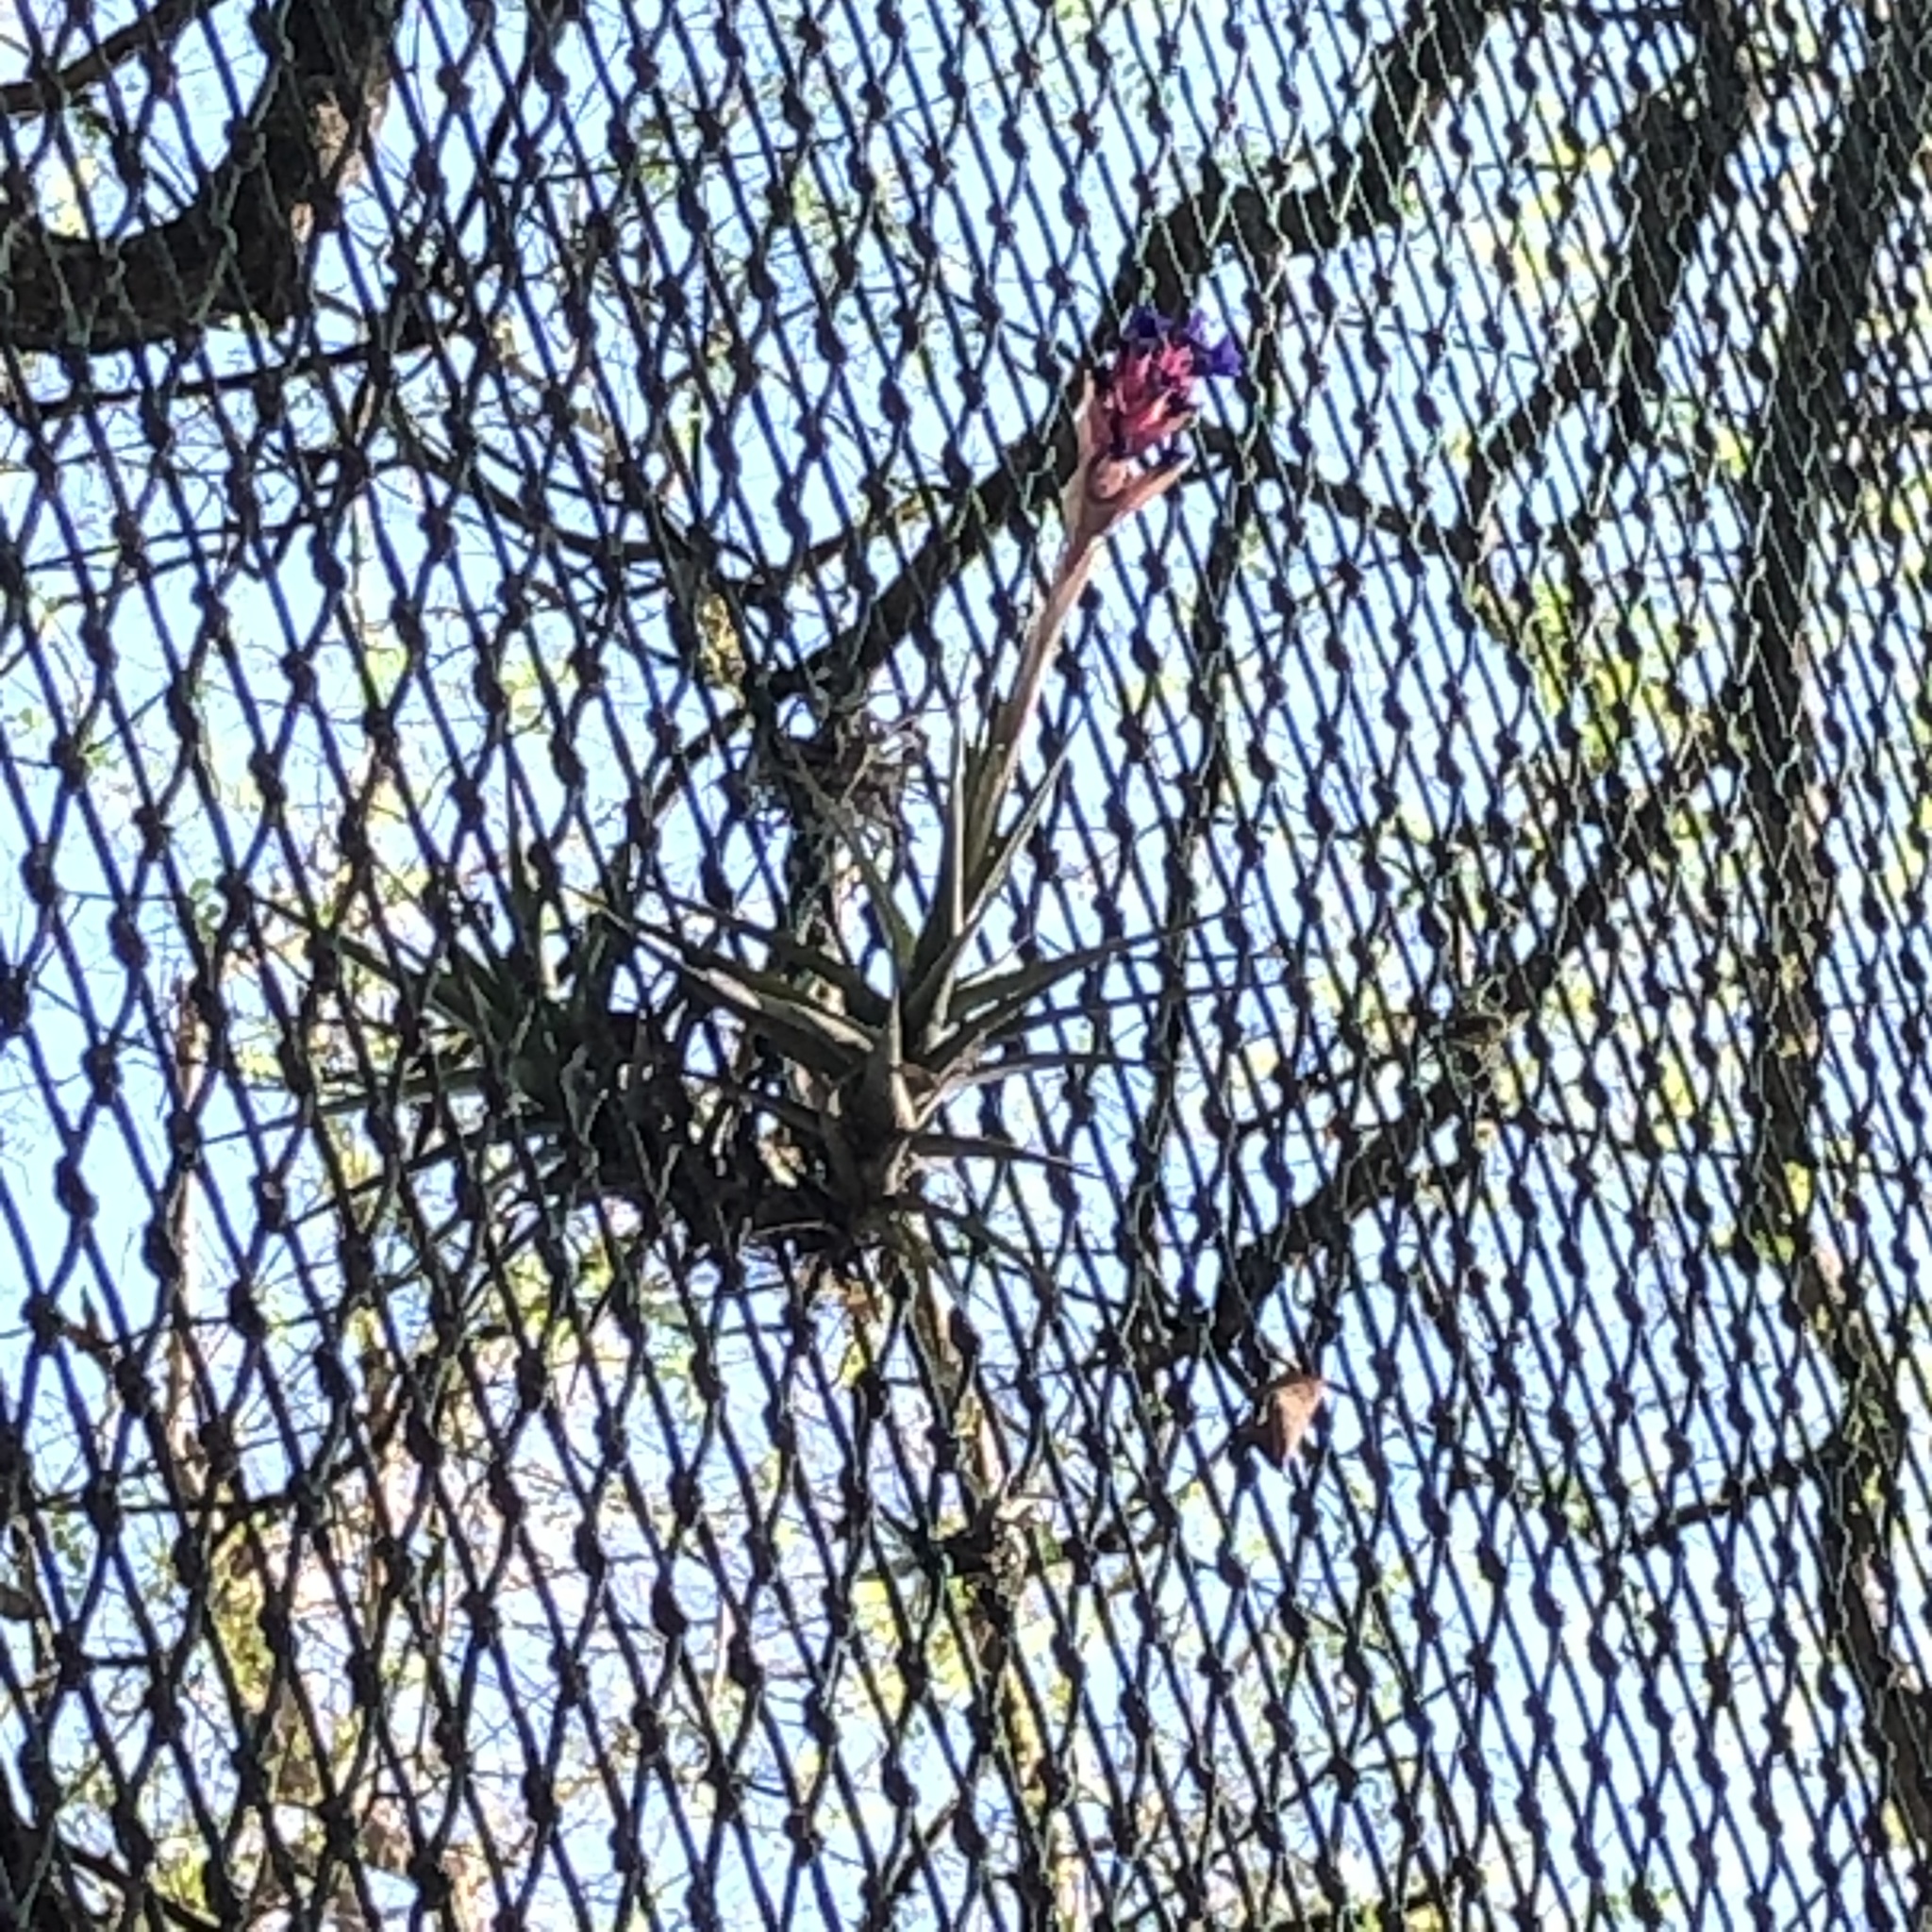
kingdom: Plantae
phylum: Tracheophyta
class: Liliopsida
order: Poales
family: Bromeliaceae
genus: Tillandsia
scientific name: Tillandsia aeranthos
